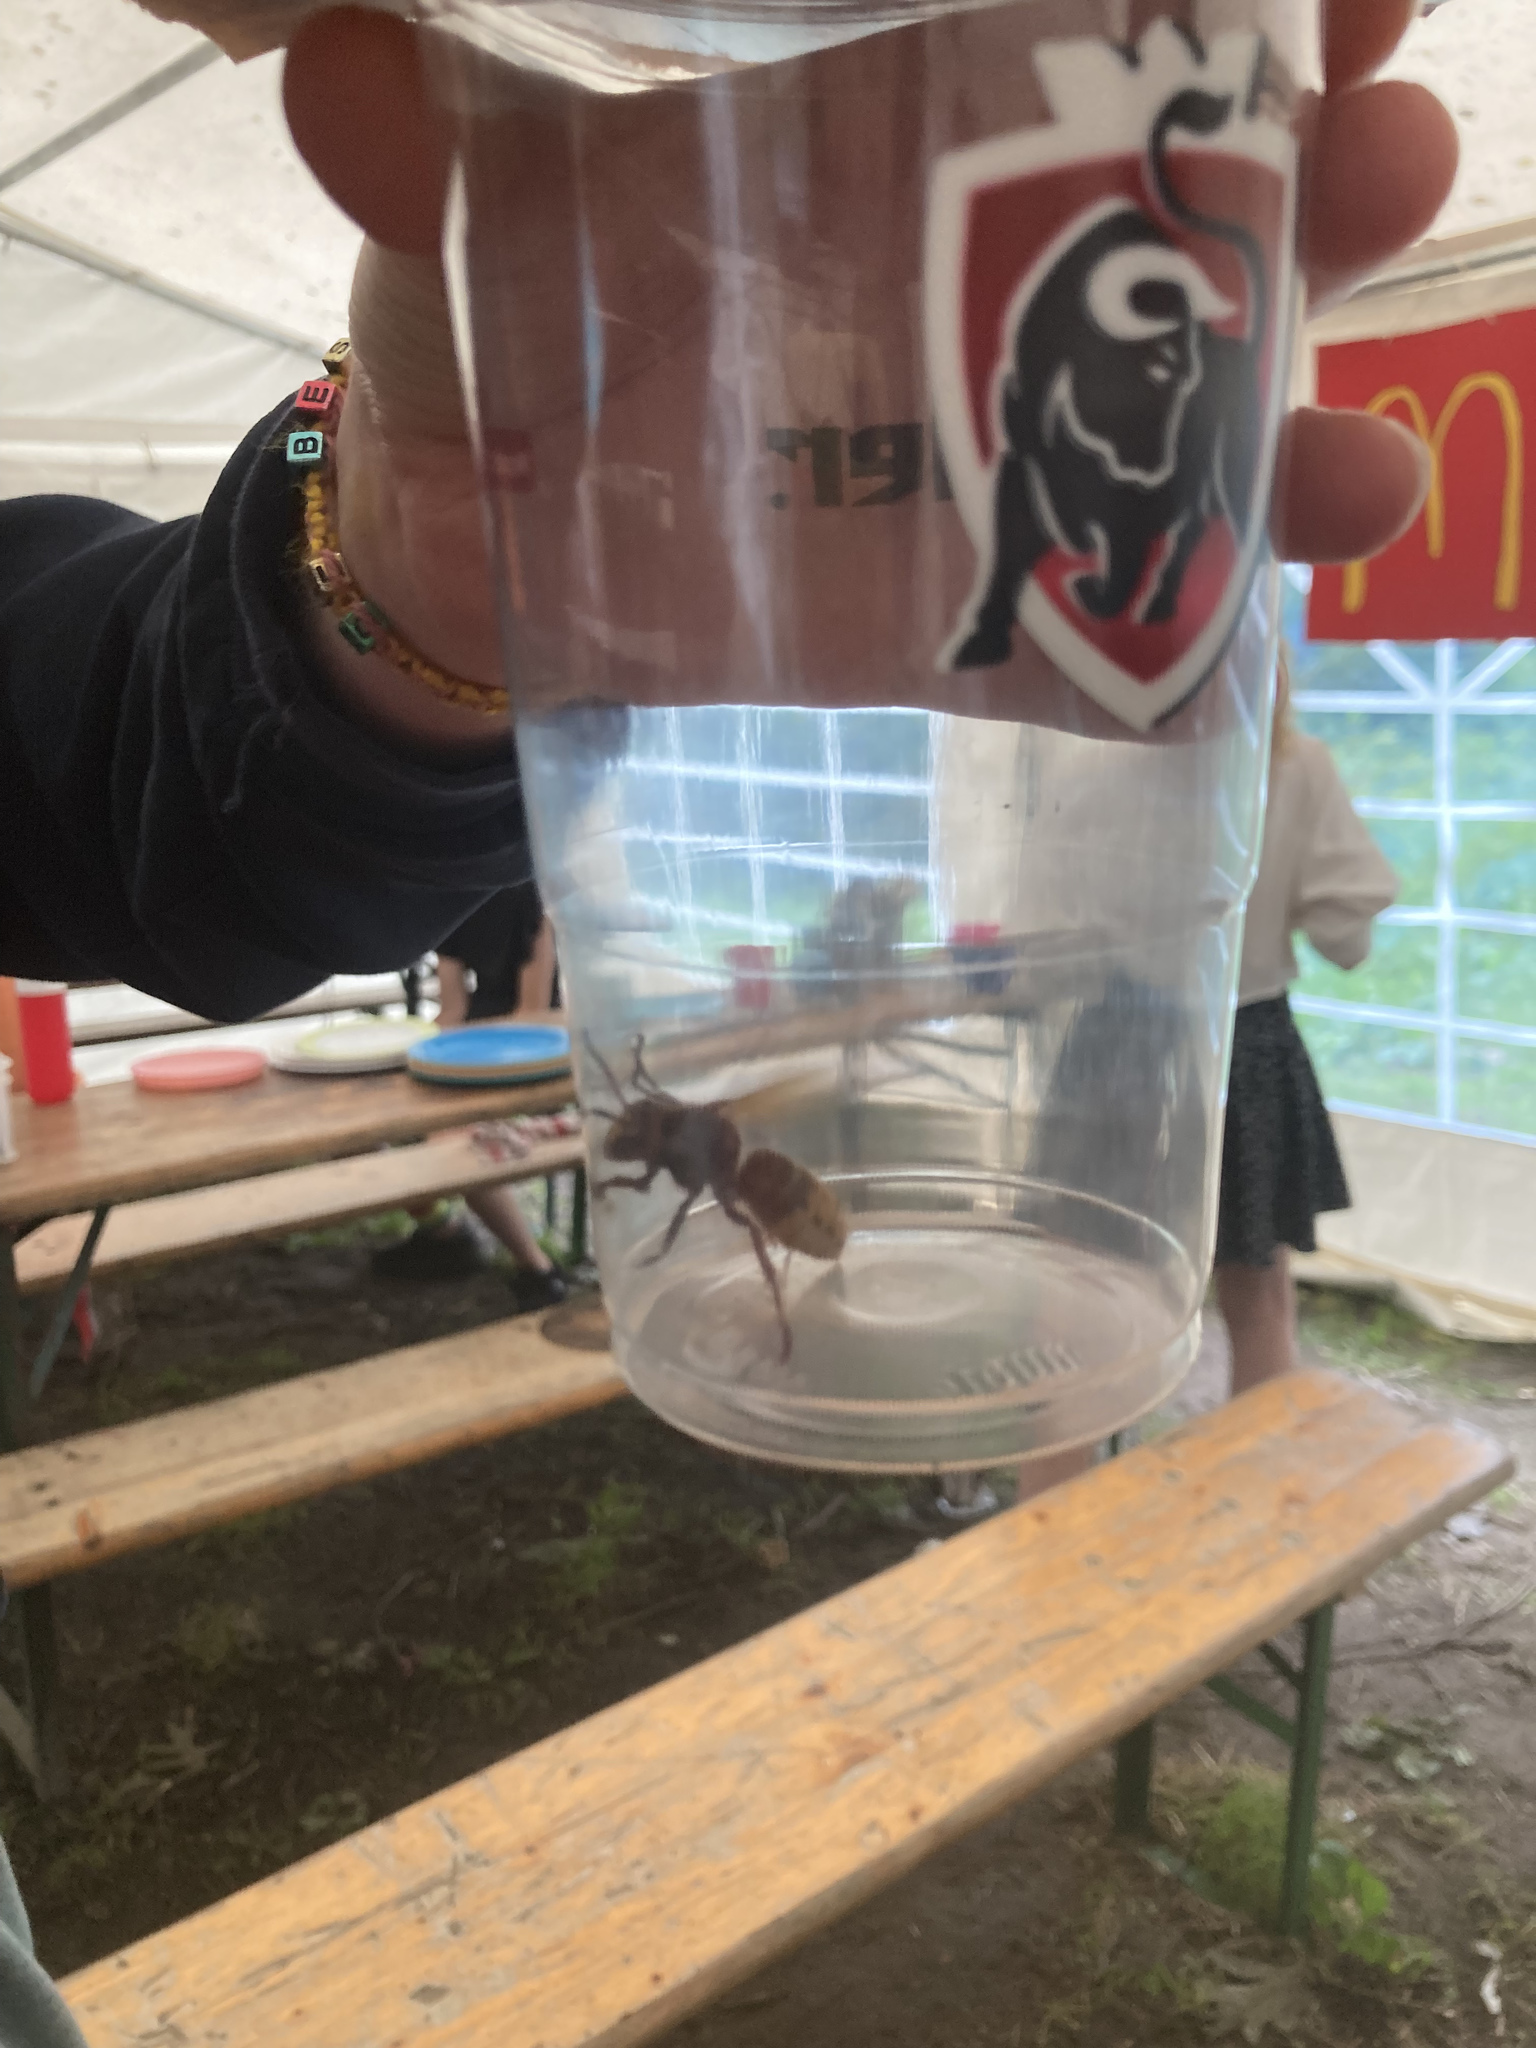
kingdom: Animalia
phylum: Arthropoda
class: Insecta
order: Hymenoptera
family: Vespidae
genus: Vespa
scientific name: Vespa crabro
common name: Hornet
